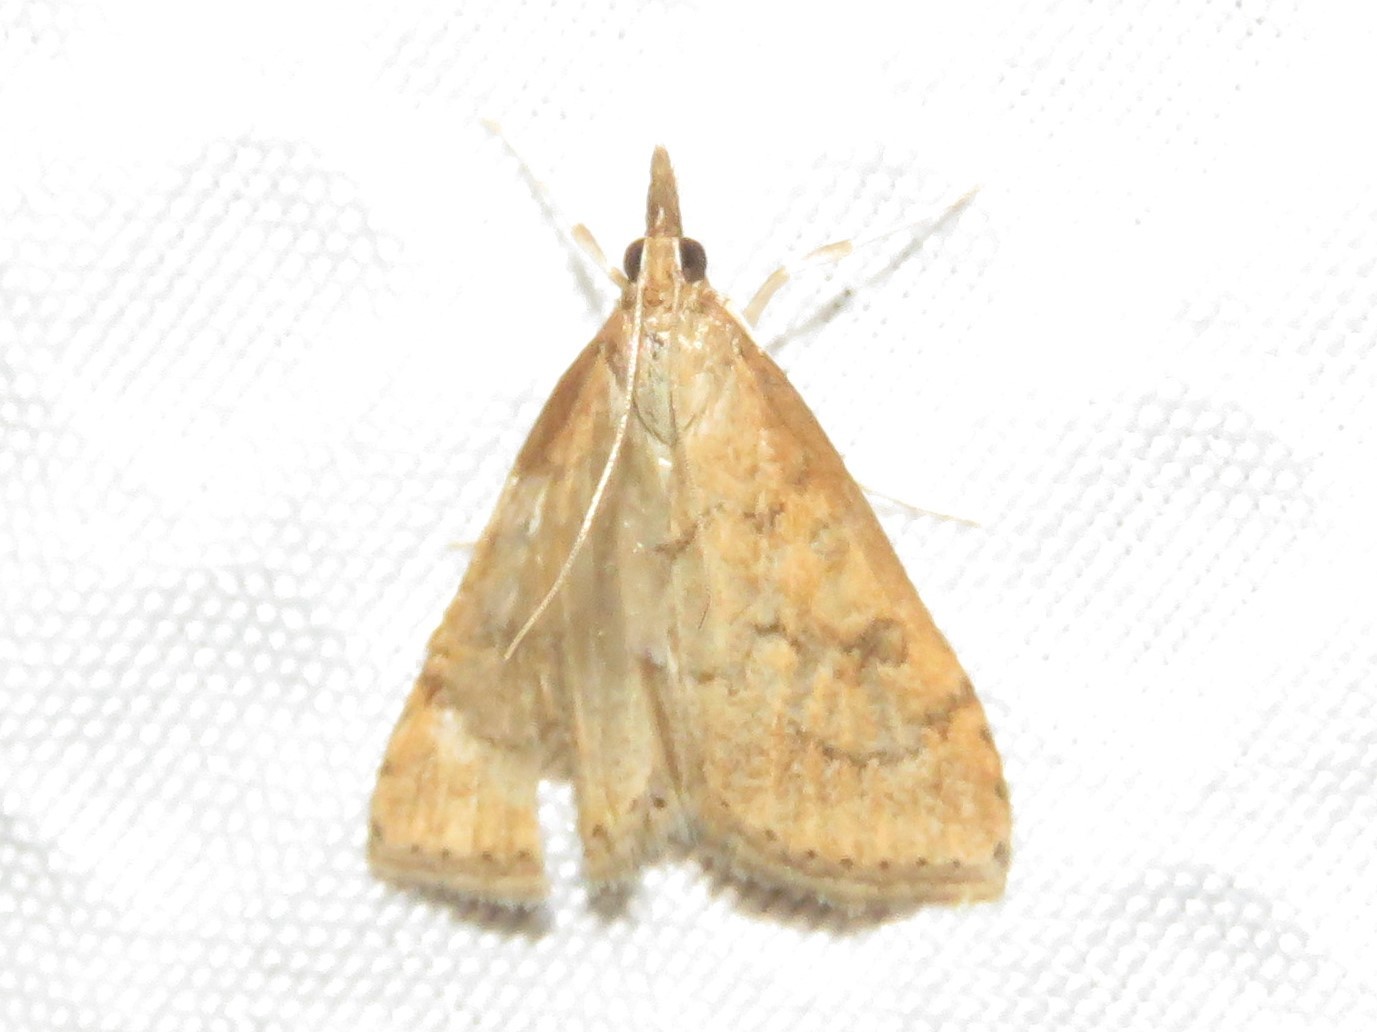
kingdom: Animalia
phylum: Arthropoda
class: Insecta
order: Lepidoptera
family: Crambidae
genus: Udea
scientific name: Udea rubigalis
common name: Celery leaftier moth
